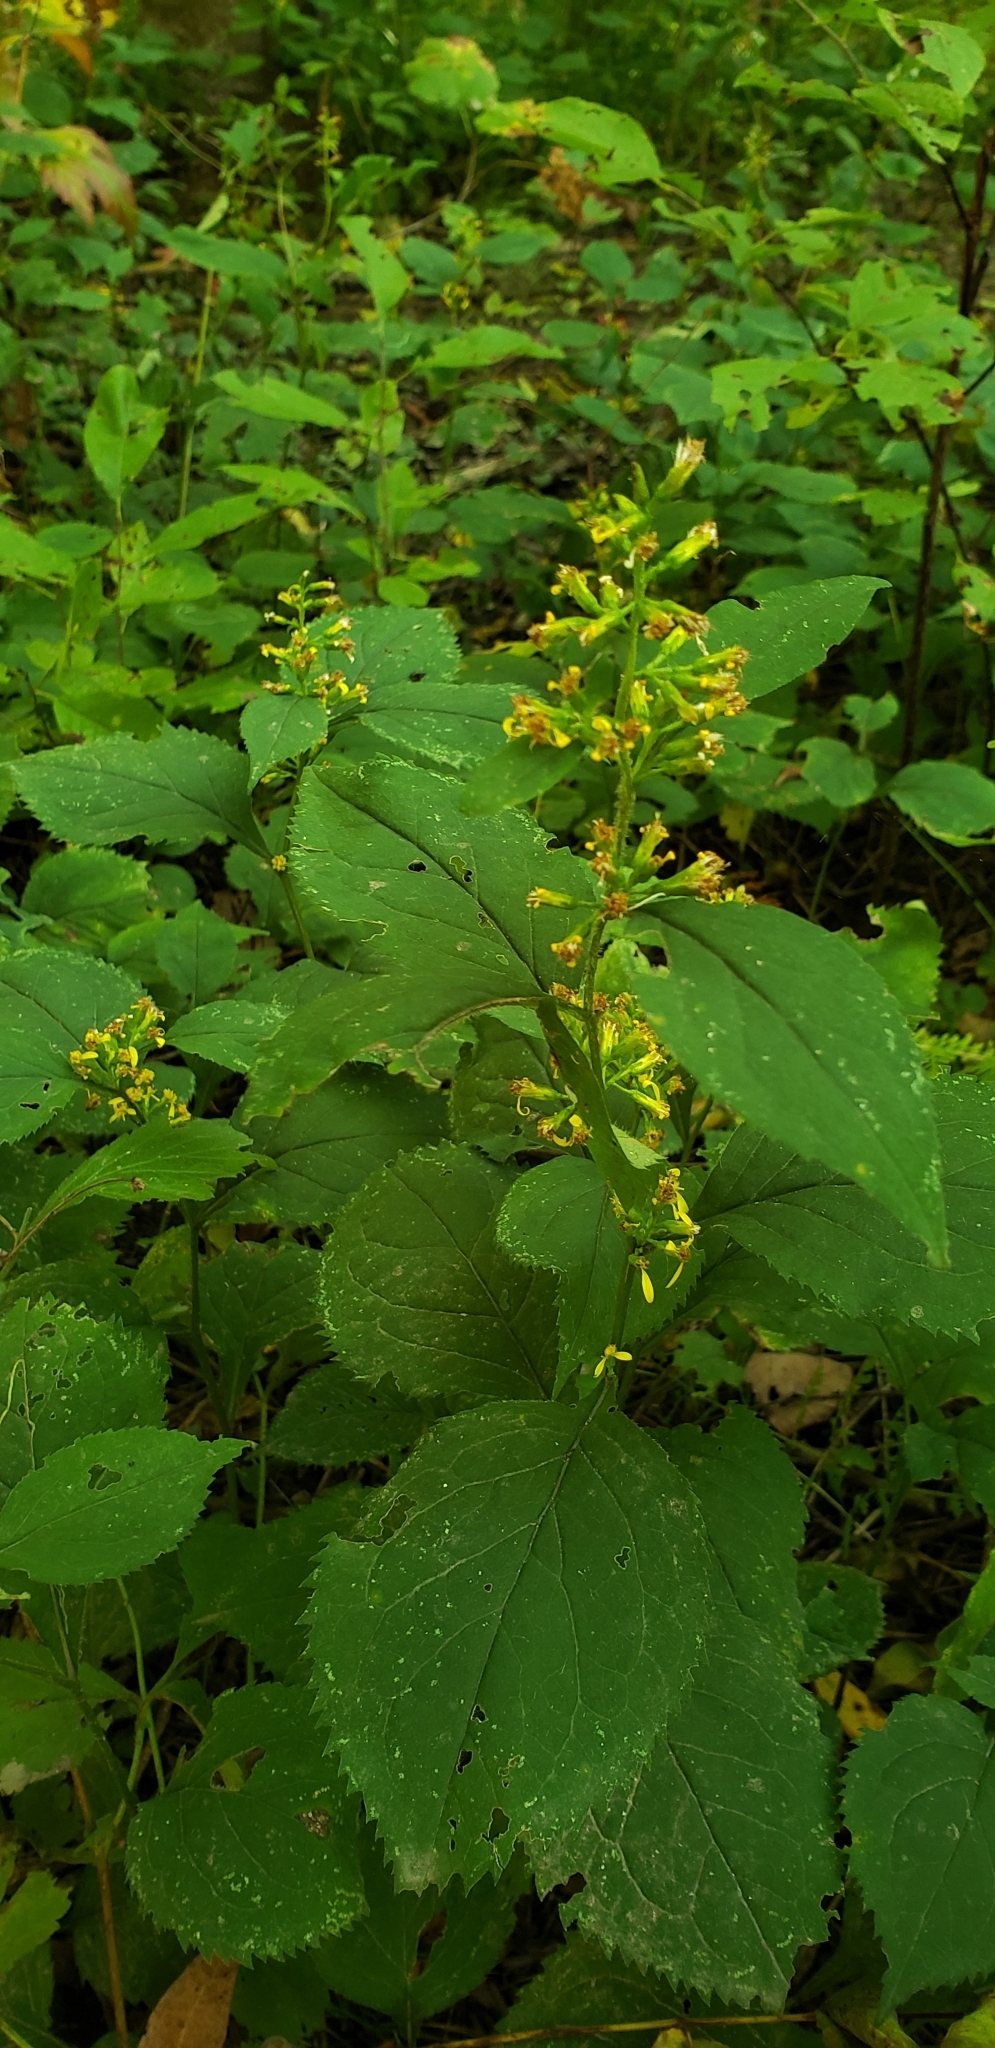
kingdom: Plantae
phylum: Tracheophyta
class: Magnoliopsida
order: Asterales
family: Asteraceae
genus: Solidago
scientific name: Solidago flexicaulis
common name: Zig-zag goldenrod
